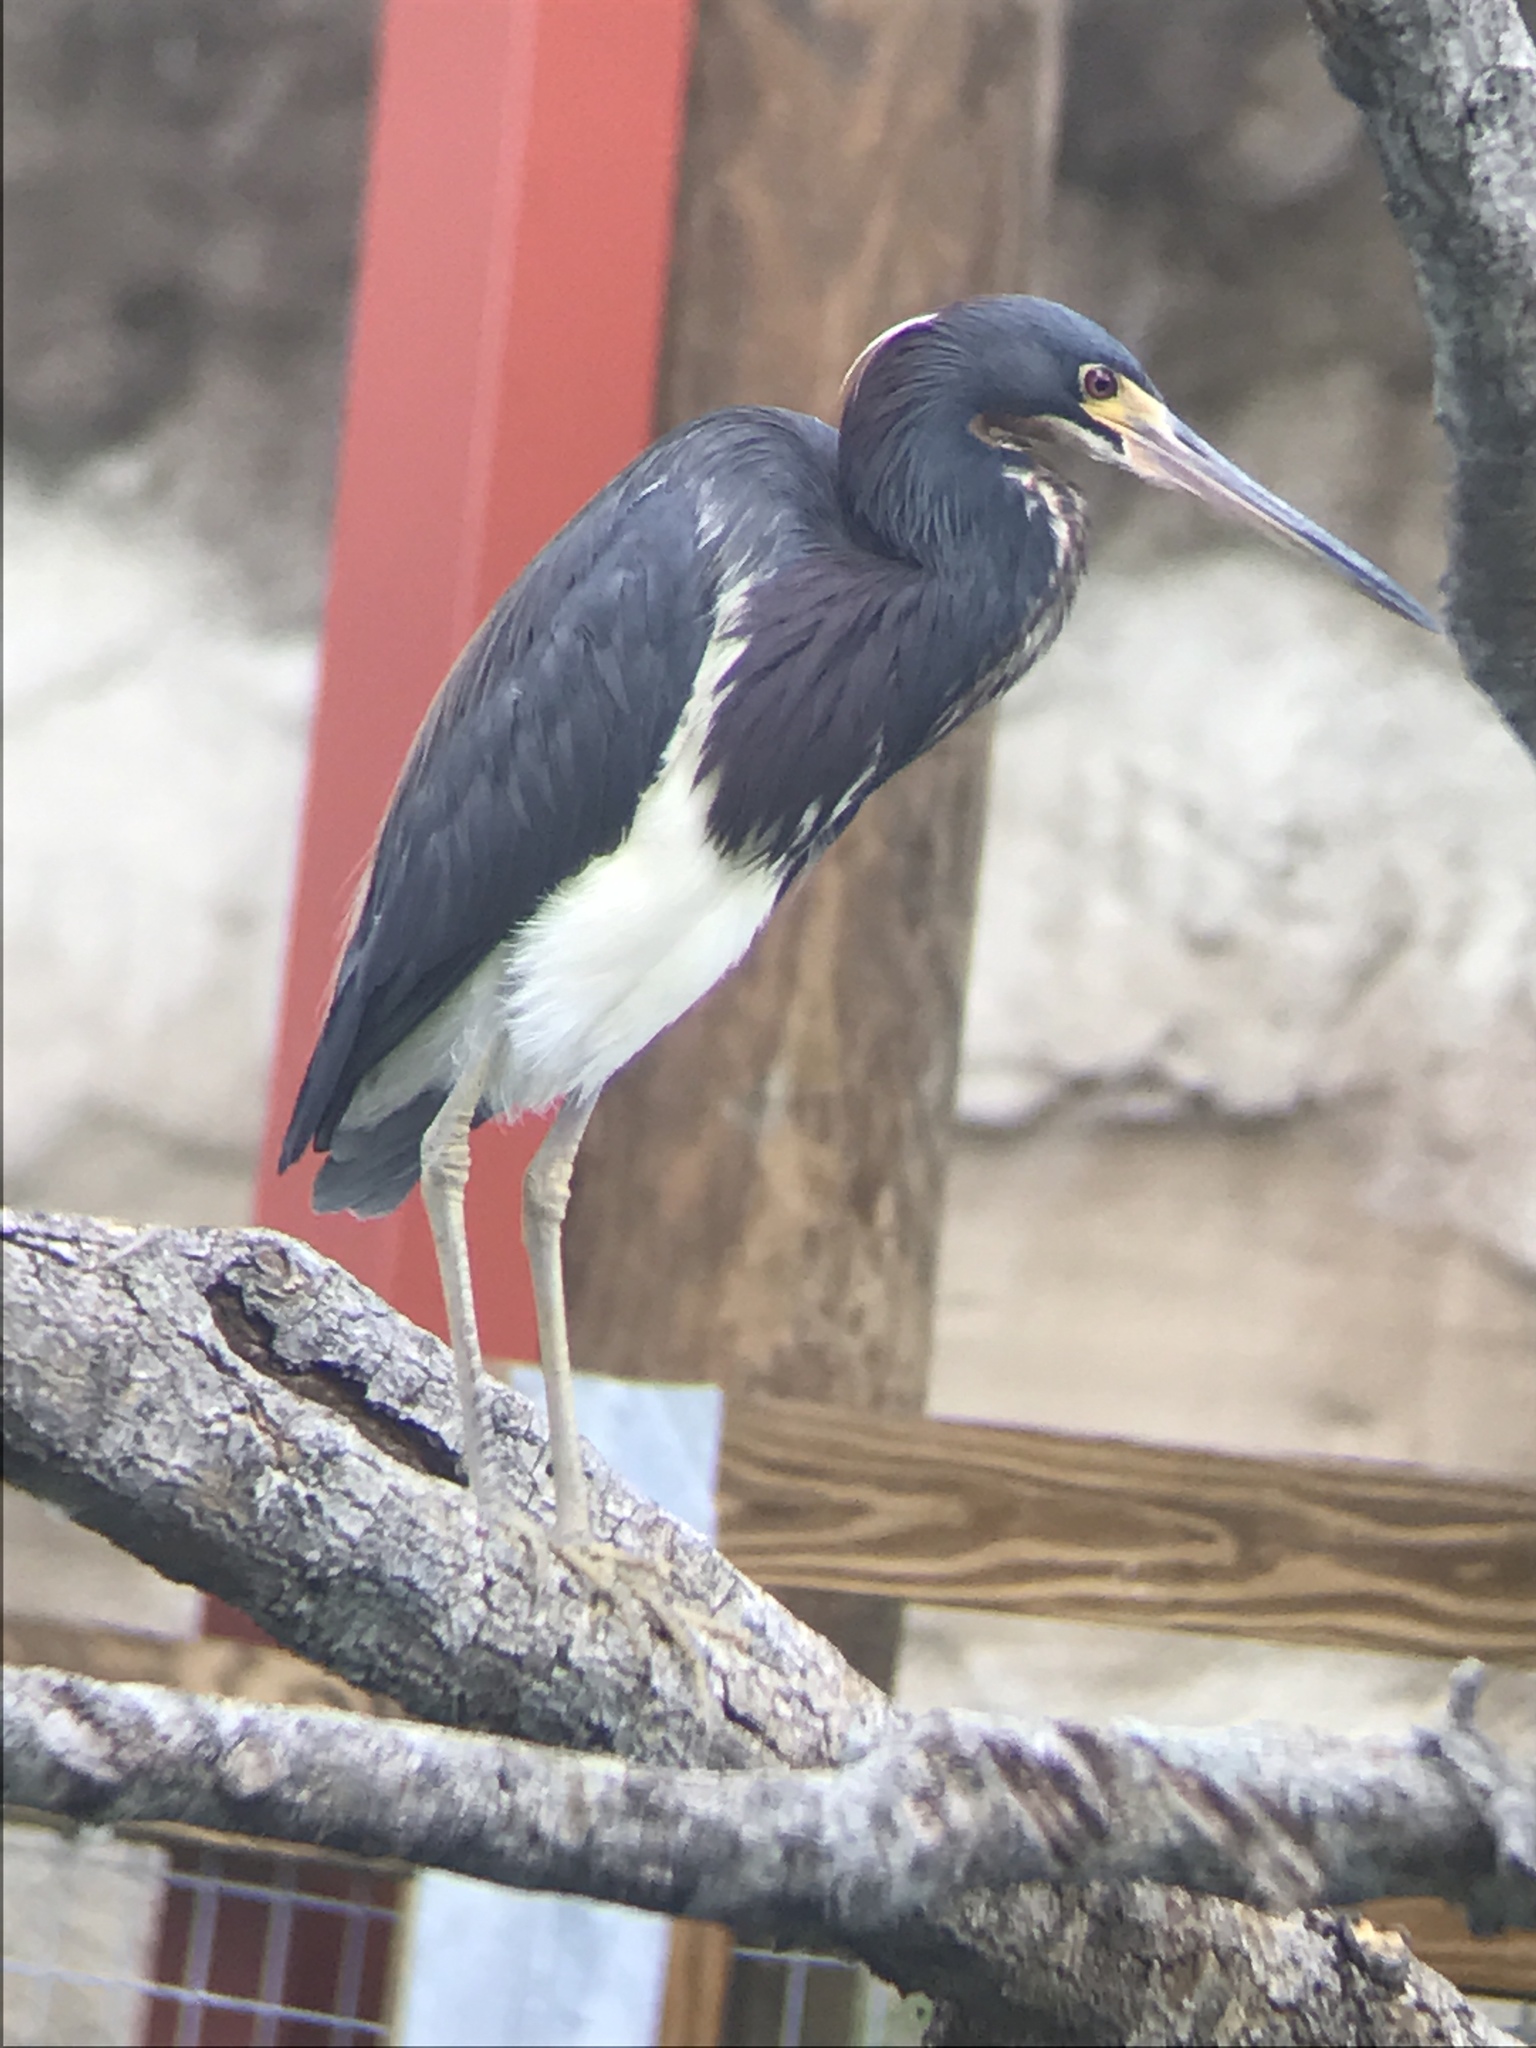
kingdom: Animalia
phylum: Chordata
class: Aves
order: Pelecaniformes
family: Ardeidae
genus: Egretta
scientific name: Egretta tricolor
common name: Tricolored heron
